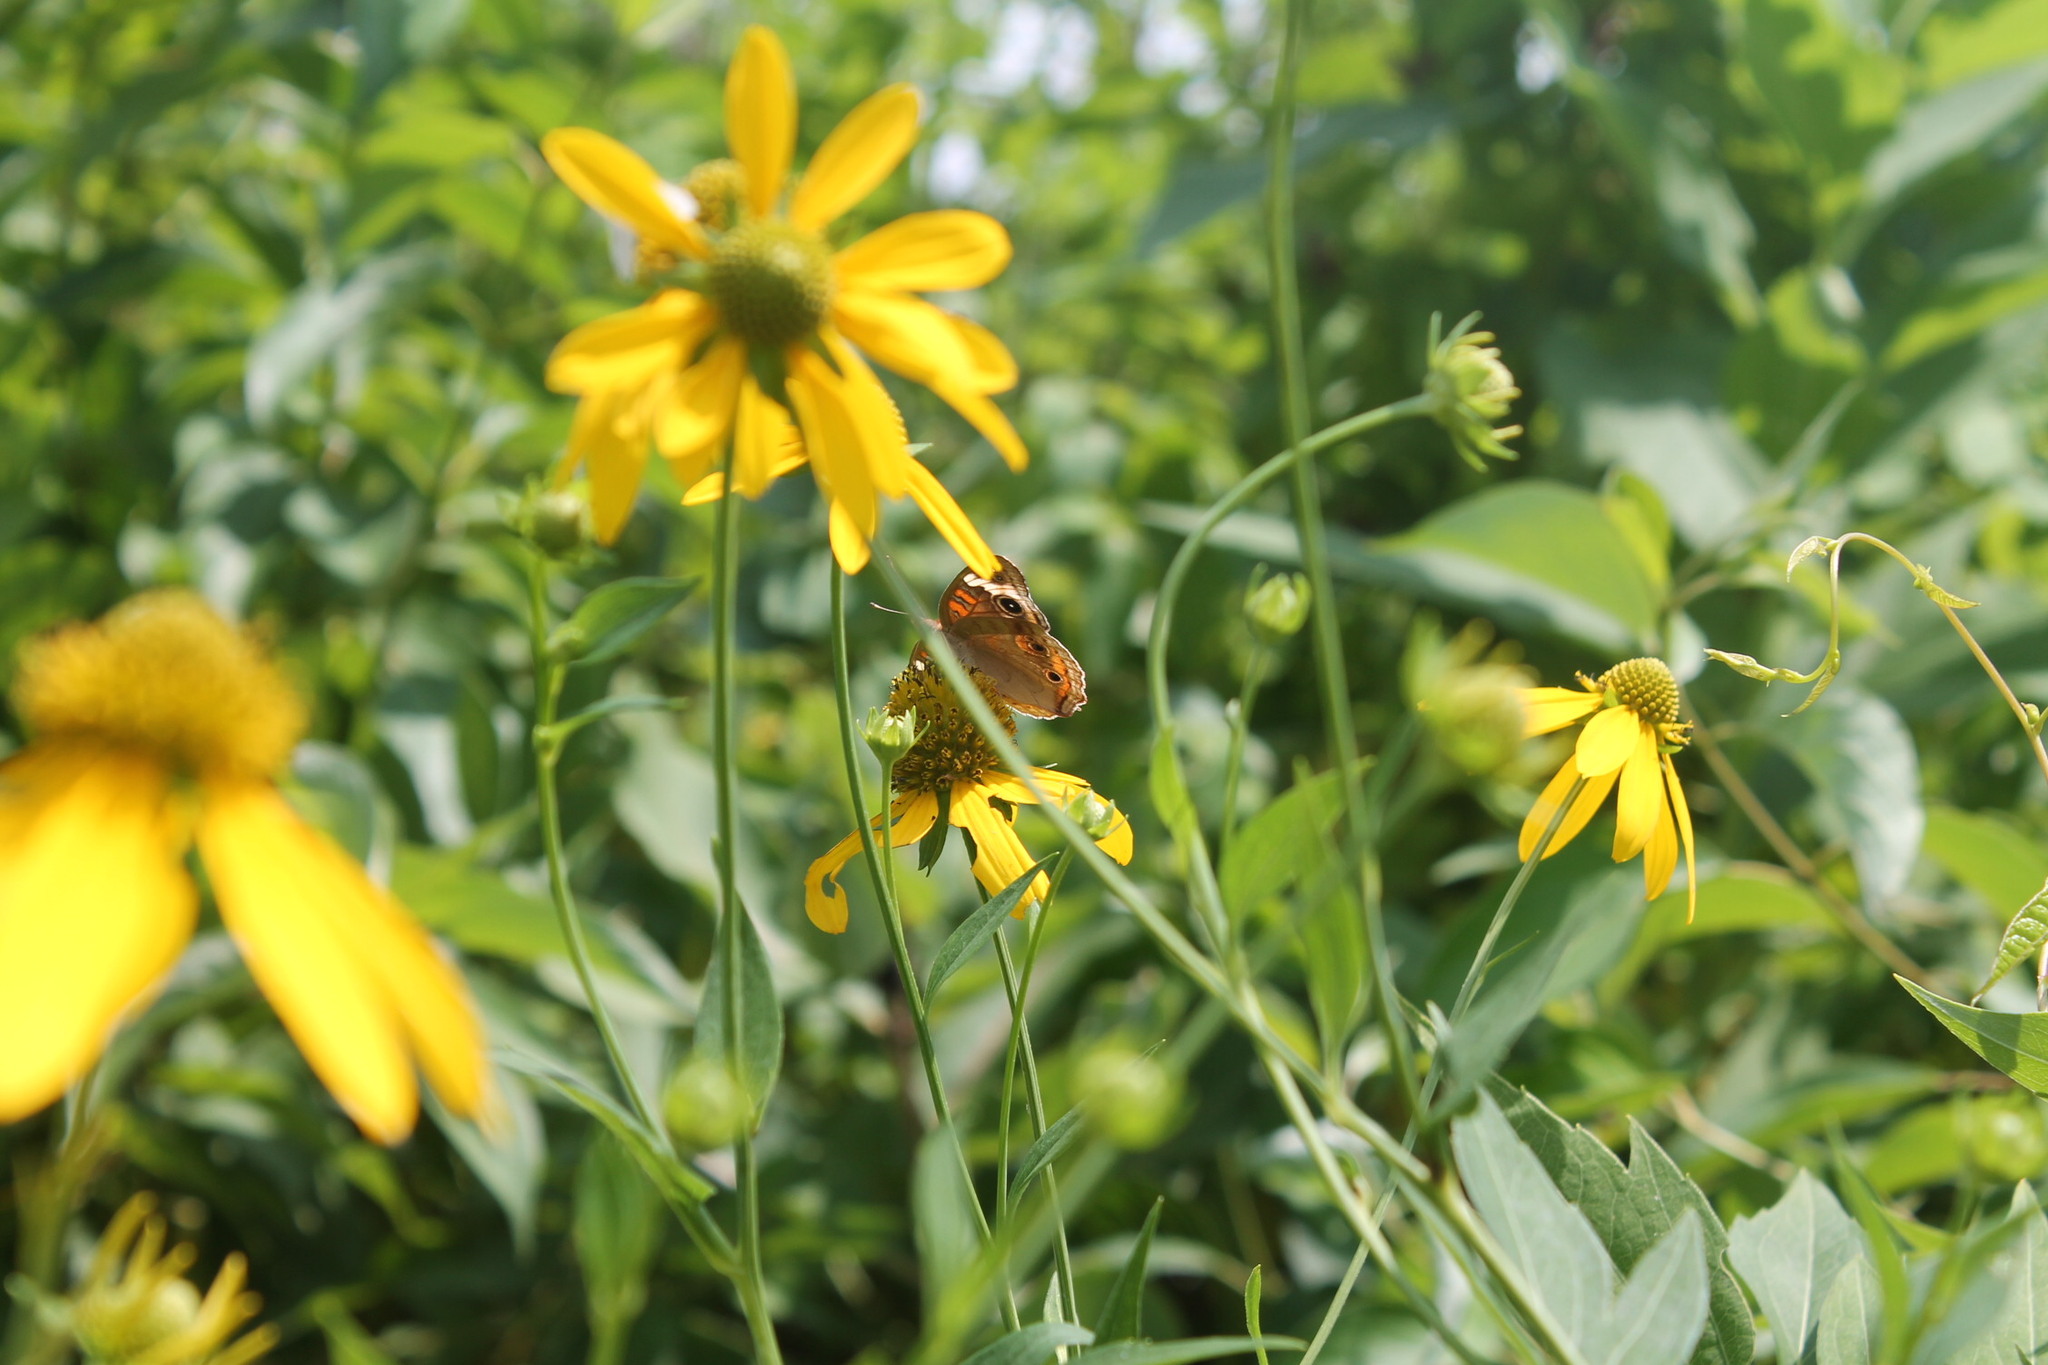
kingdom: Animalia
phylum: Arthropoda
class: Insecta
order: Lepidoptera
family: Nymphalidae
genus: Junonia
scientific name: Junonia coenia
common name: Common buckeye
